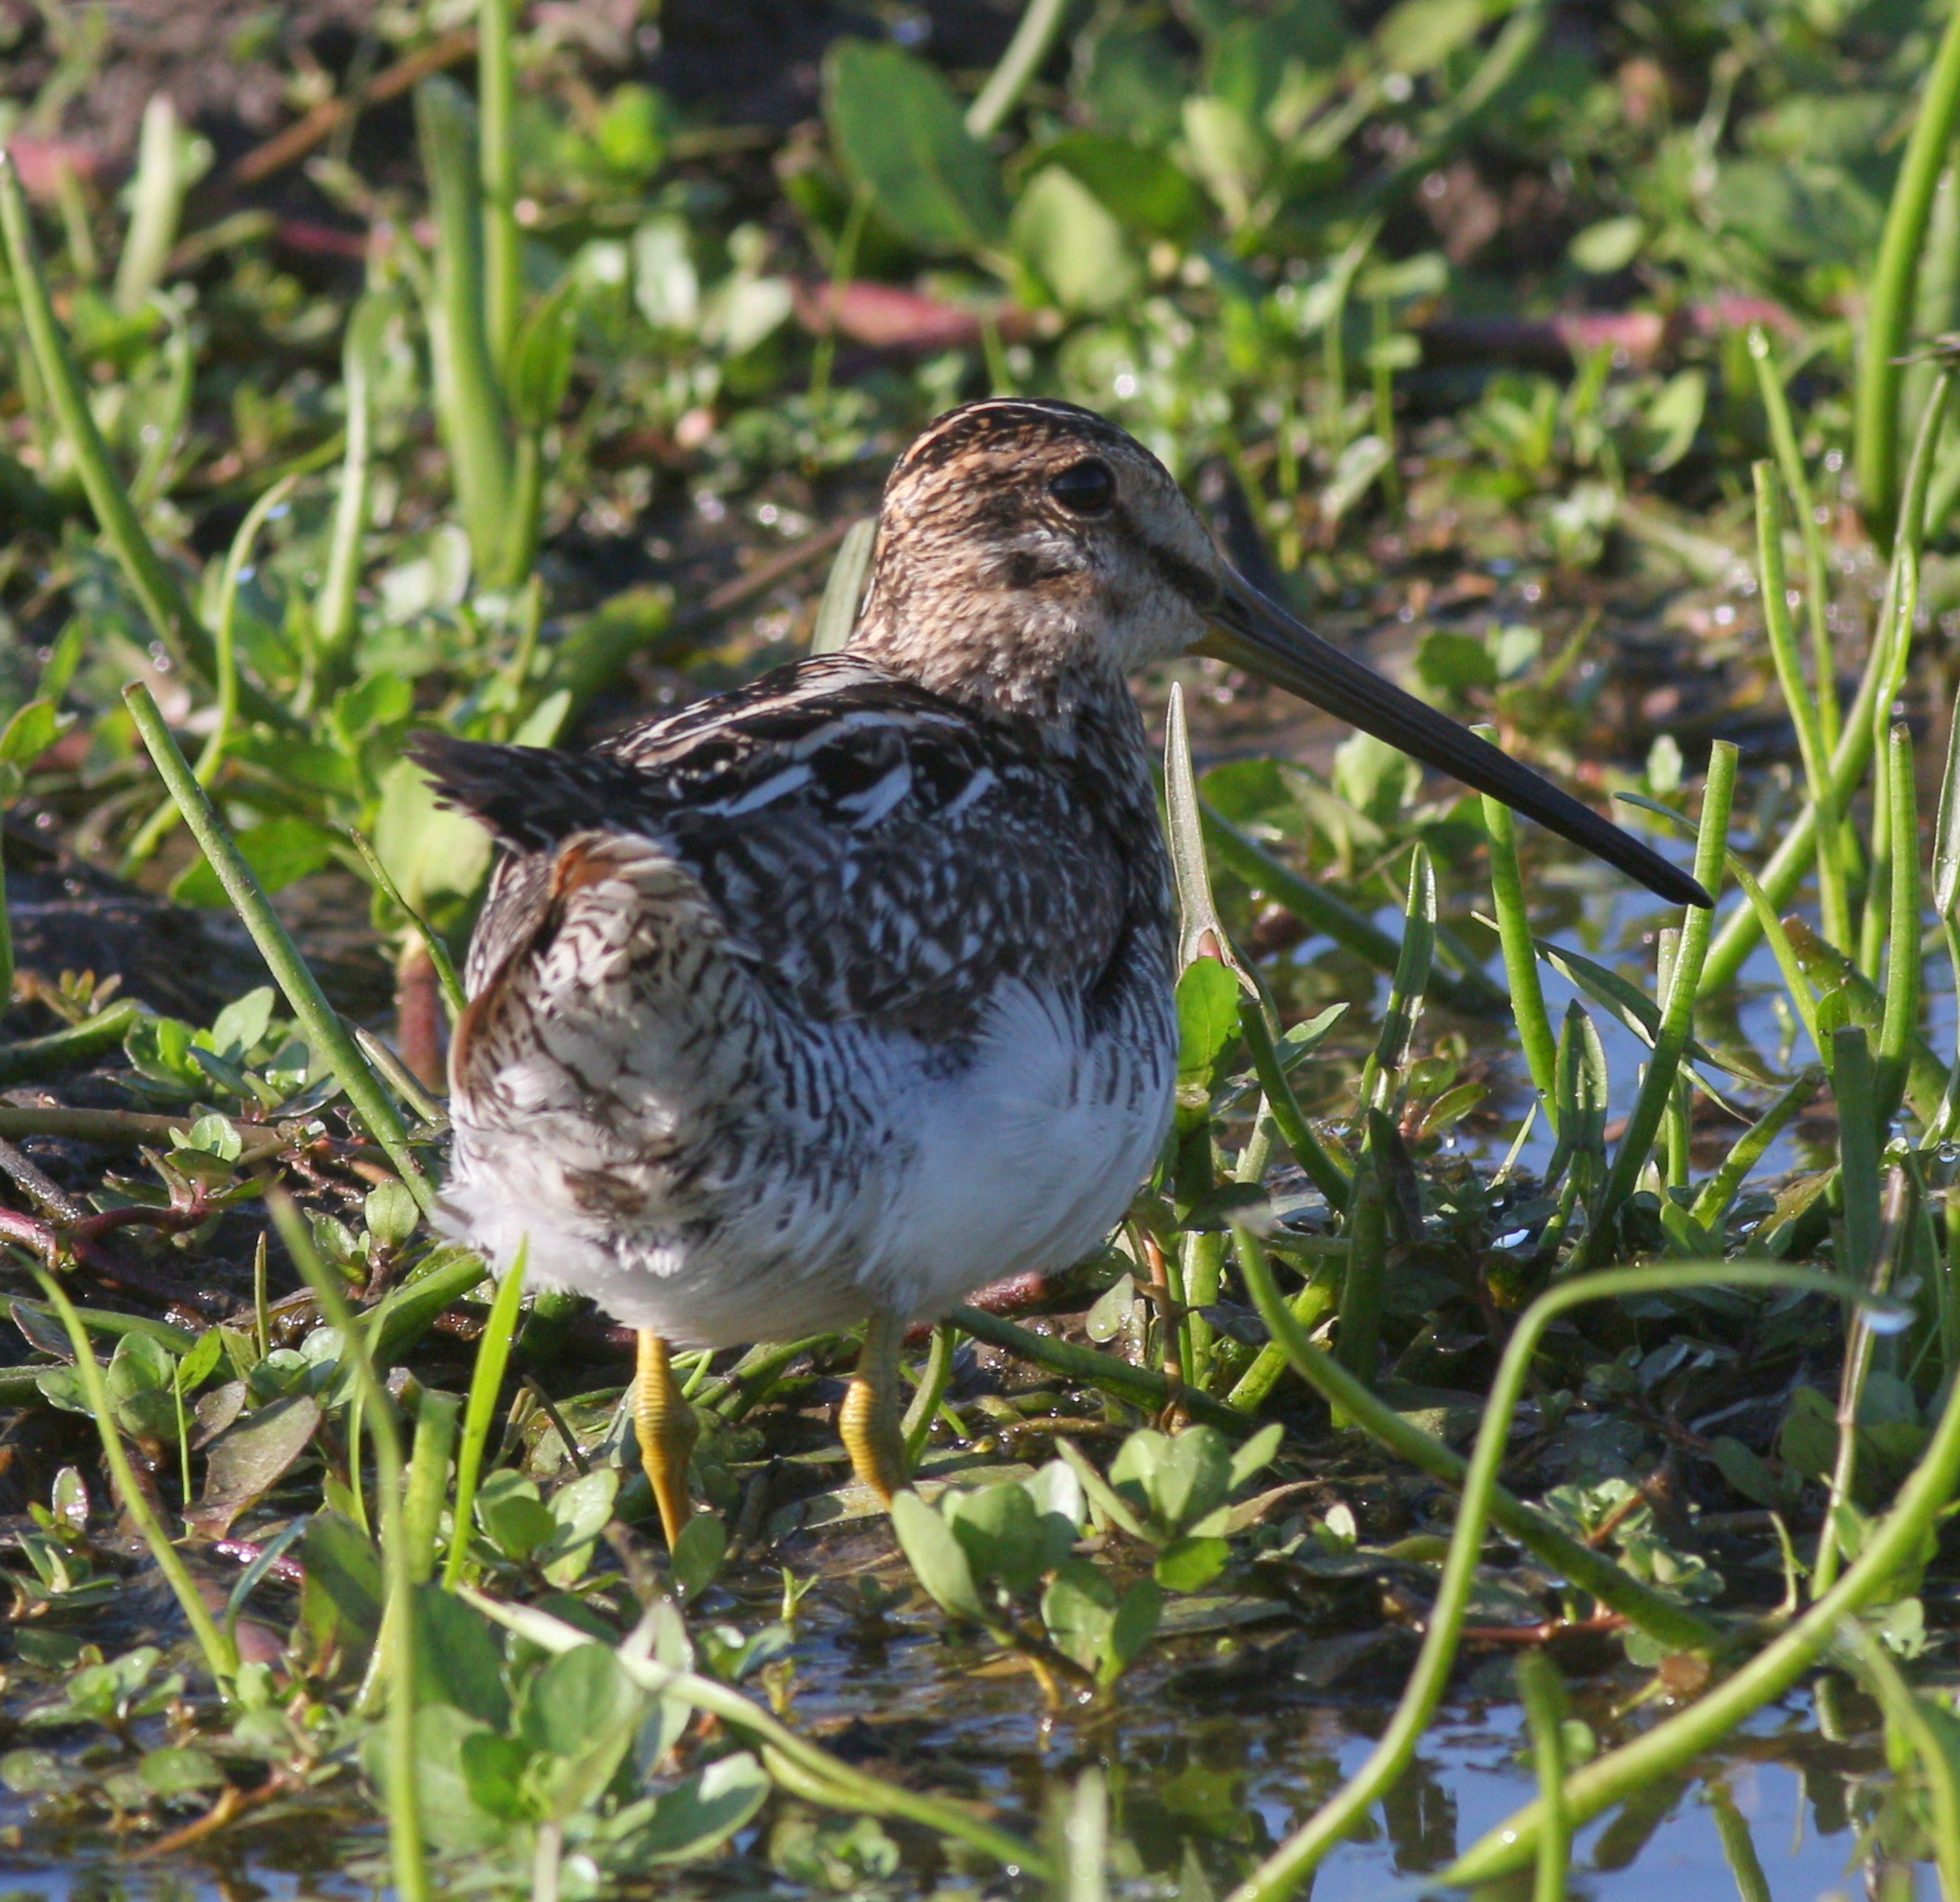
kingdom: Animalia
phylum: Chordata
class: Aves
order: Charadriiformes
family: Scolopacidae
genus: Gallinago
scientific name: Gallinago paraguaiae
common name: South american snipe
